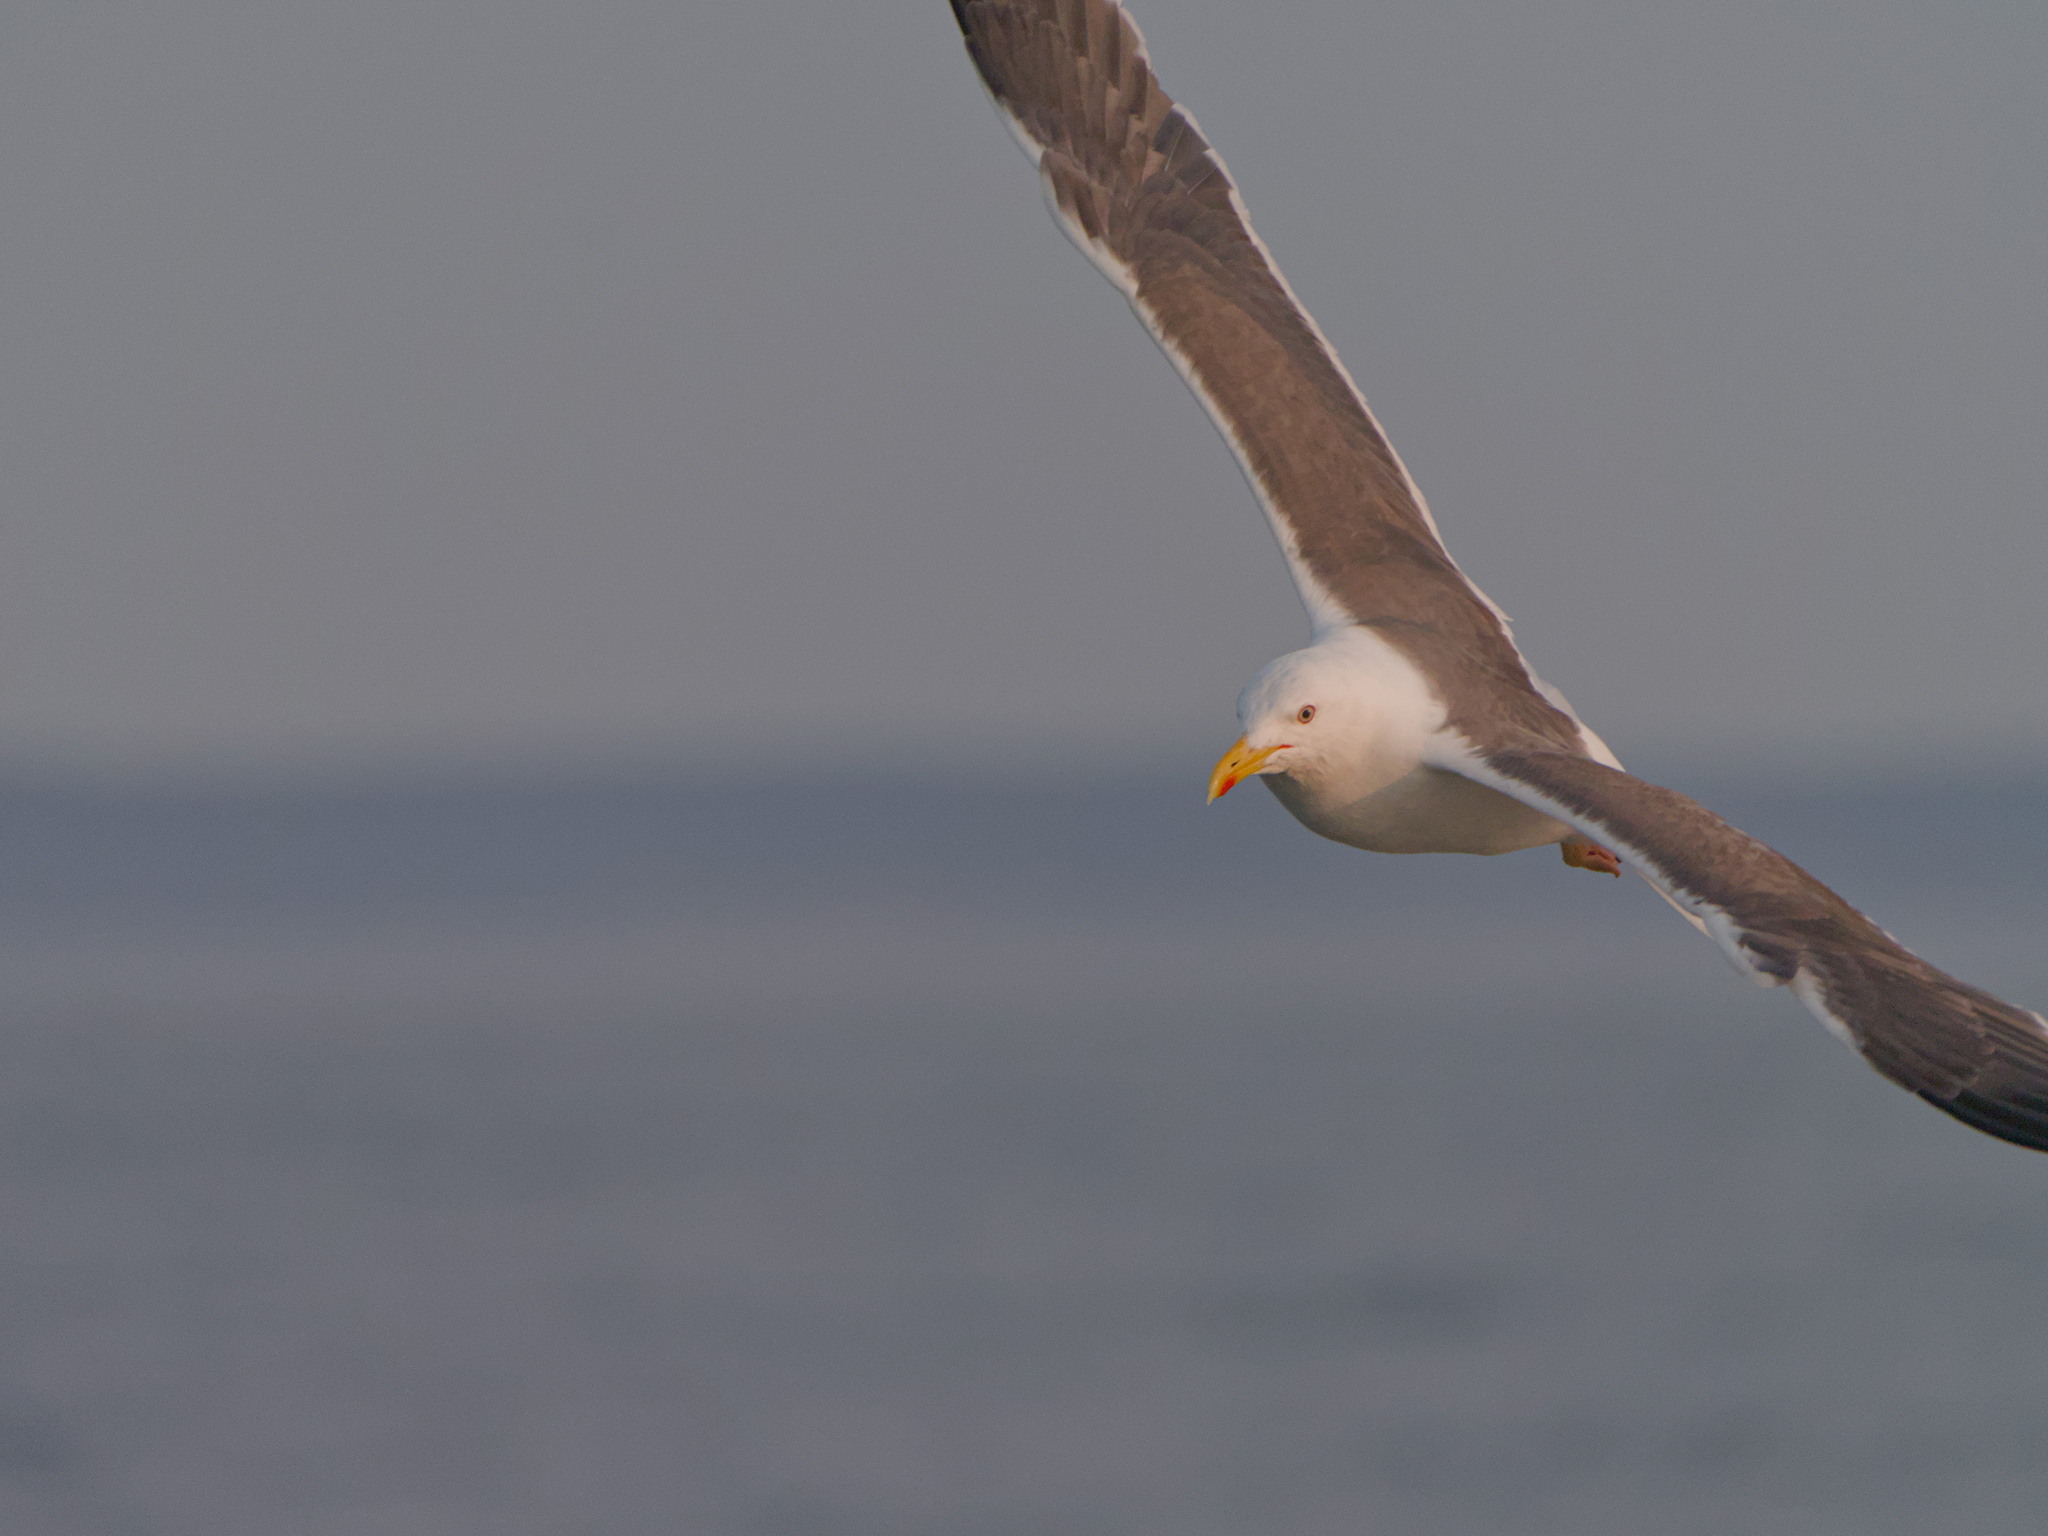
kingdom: Animalia
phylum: Chordata
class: Aves
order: Charadriiformes
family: Laridae
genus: Larus
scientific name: Larus fuscus
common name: Lesser black-backed gull
